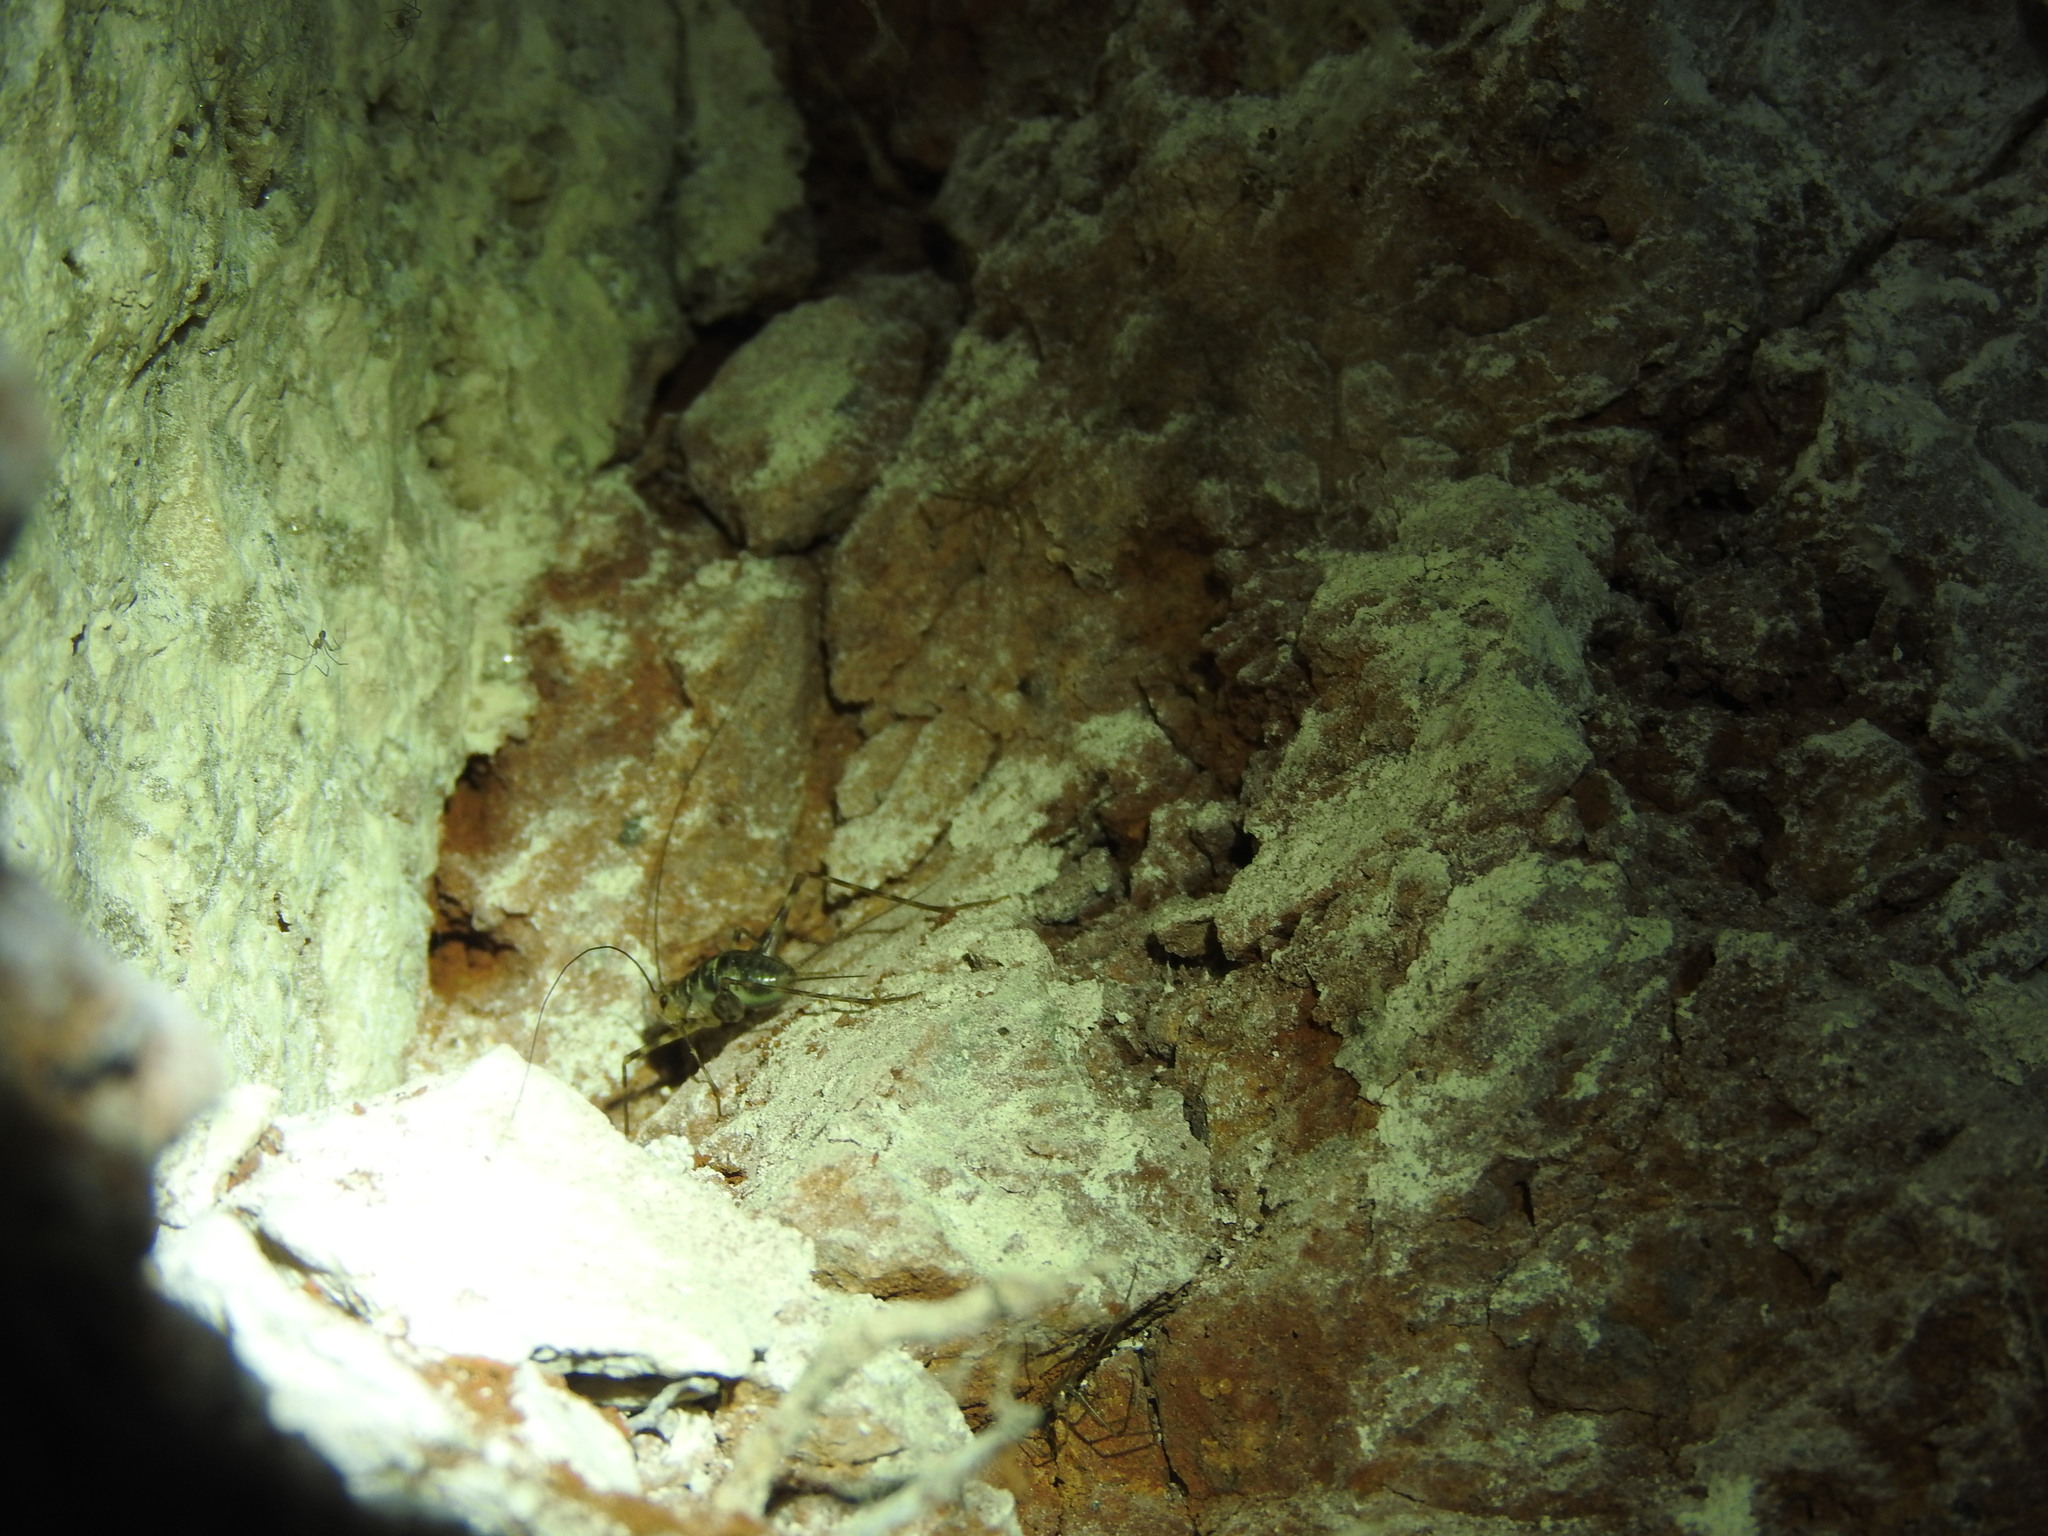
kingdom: Animalia
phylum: Arthropoda
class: Insecta
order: Orthoptera
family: Phalangopsidae
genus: Mayagryllus
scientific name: Mayagryllus yucatanus
